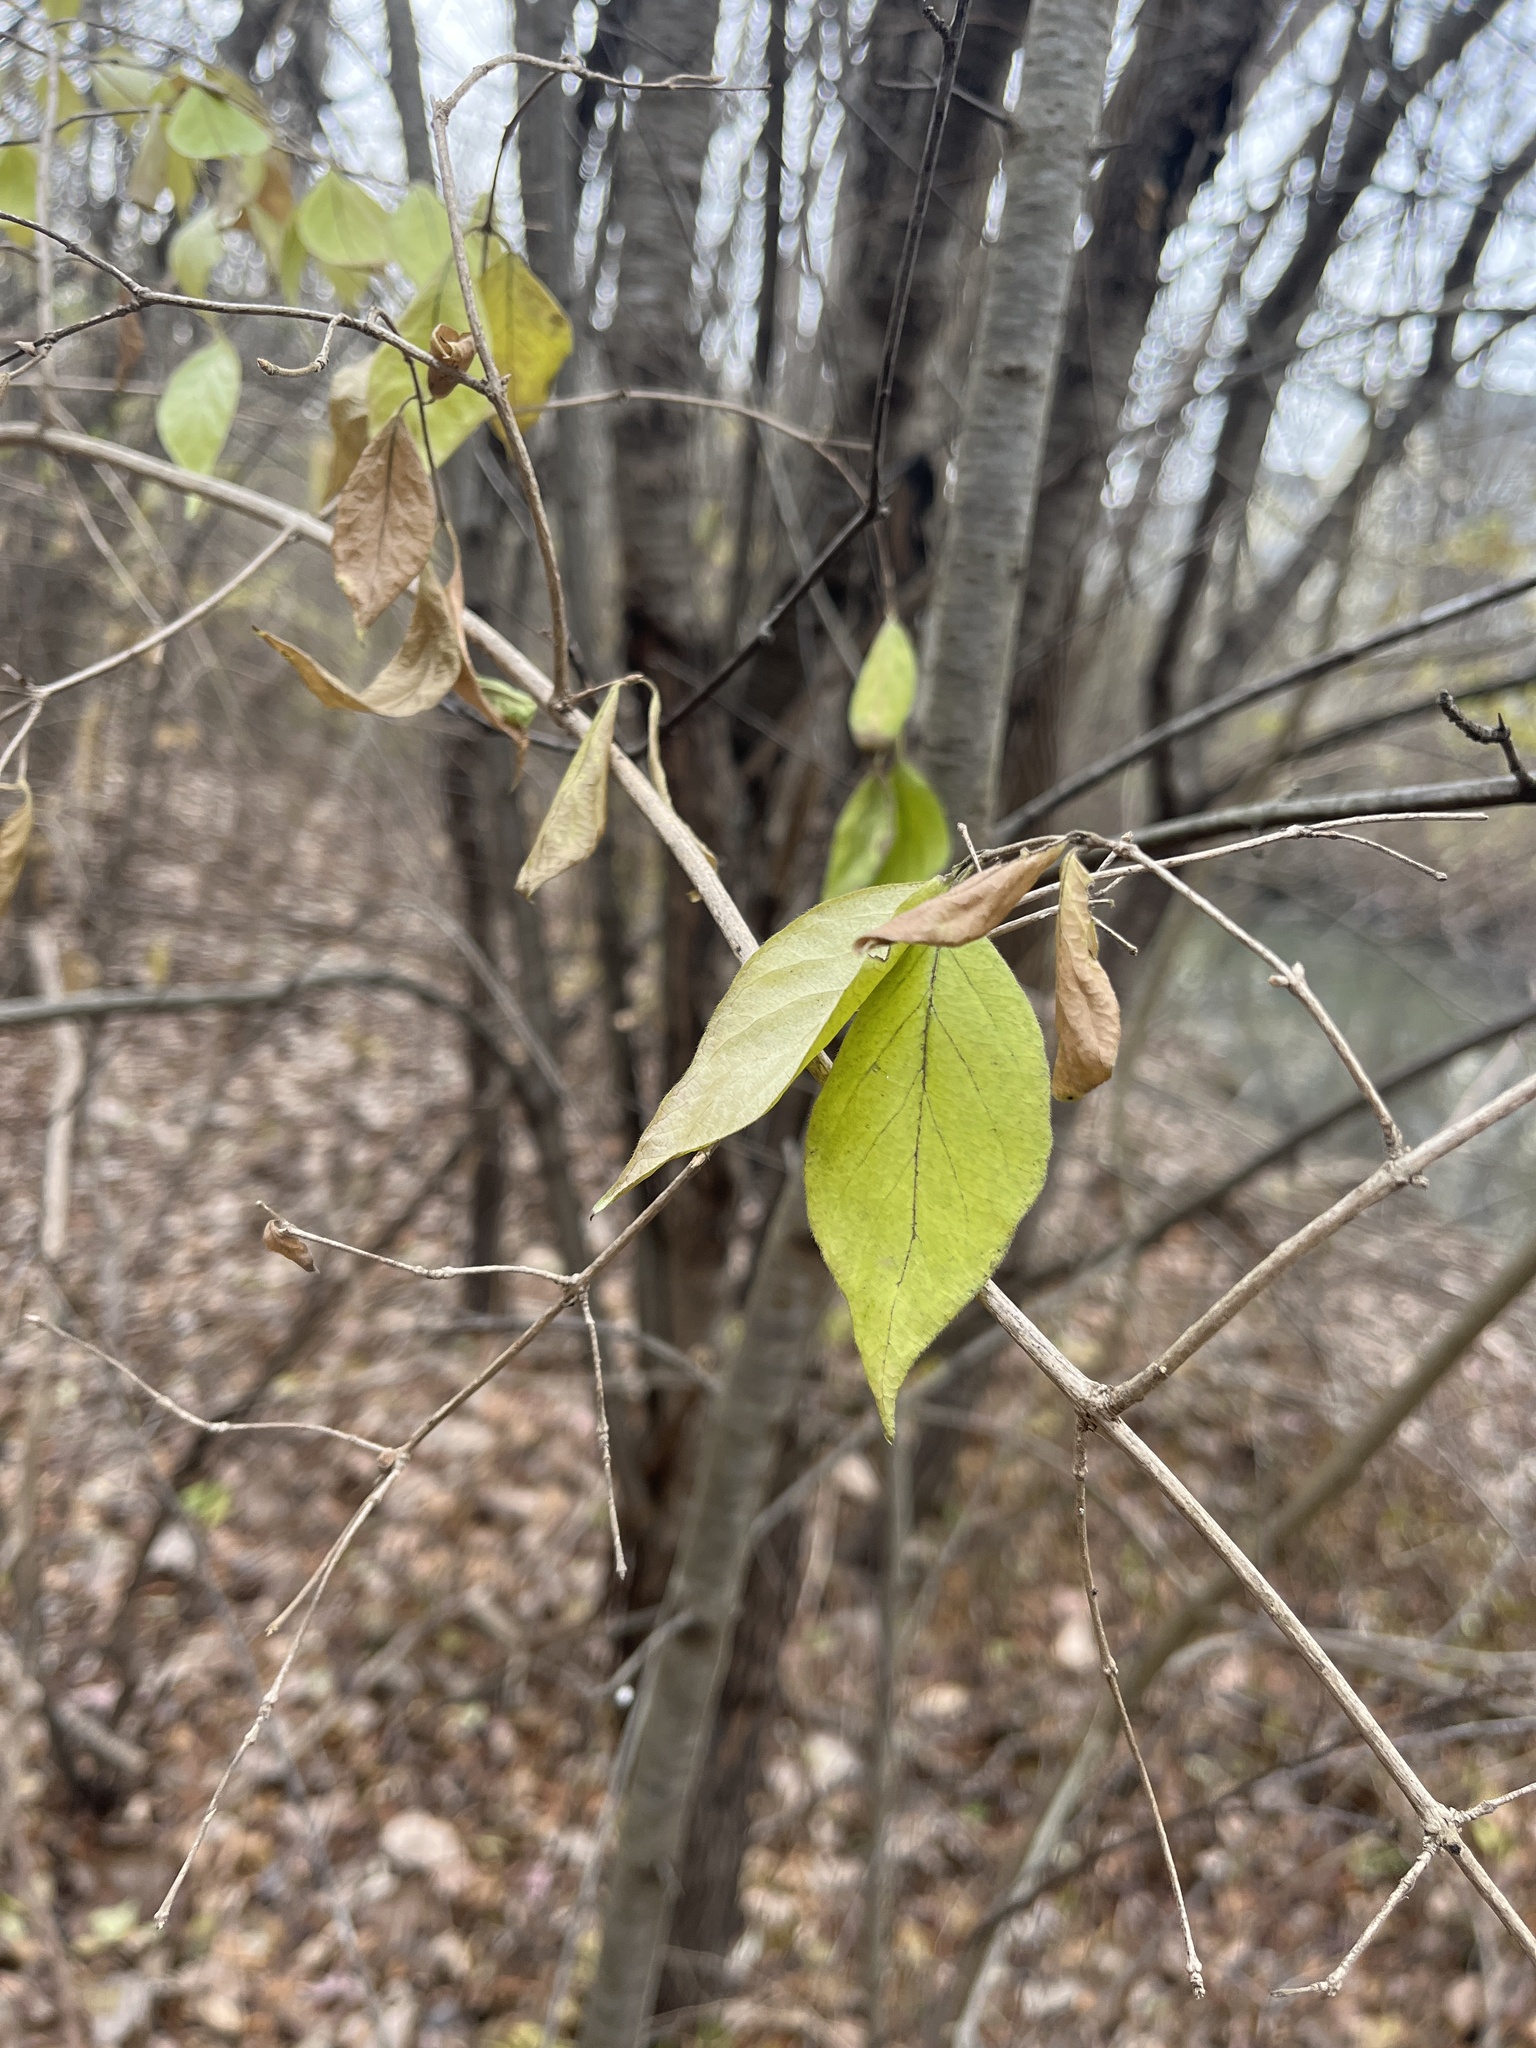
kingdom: Plantae
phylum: Tracheophyta
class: Magnoliopsida
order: Dipsacales
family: Caprifoliaceae
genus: Lonicera
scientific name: Lonicera maackii
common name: Amur honeysuckle
